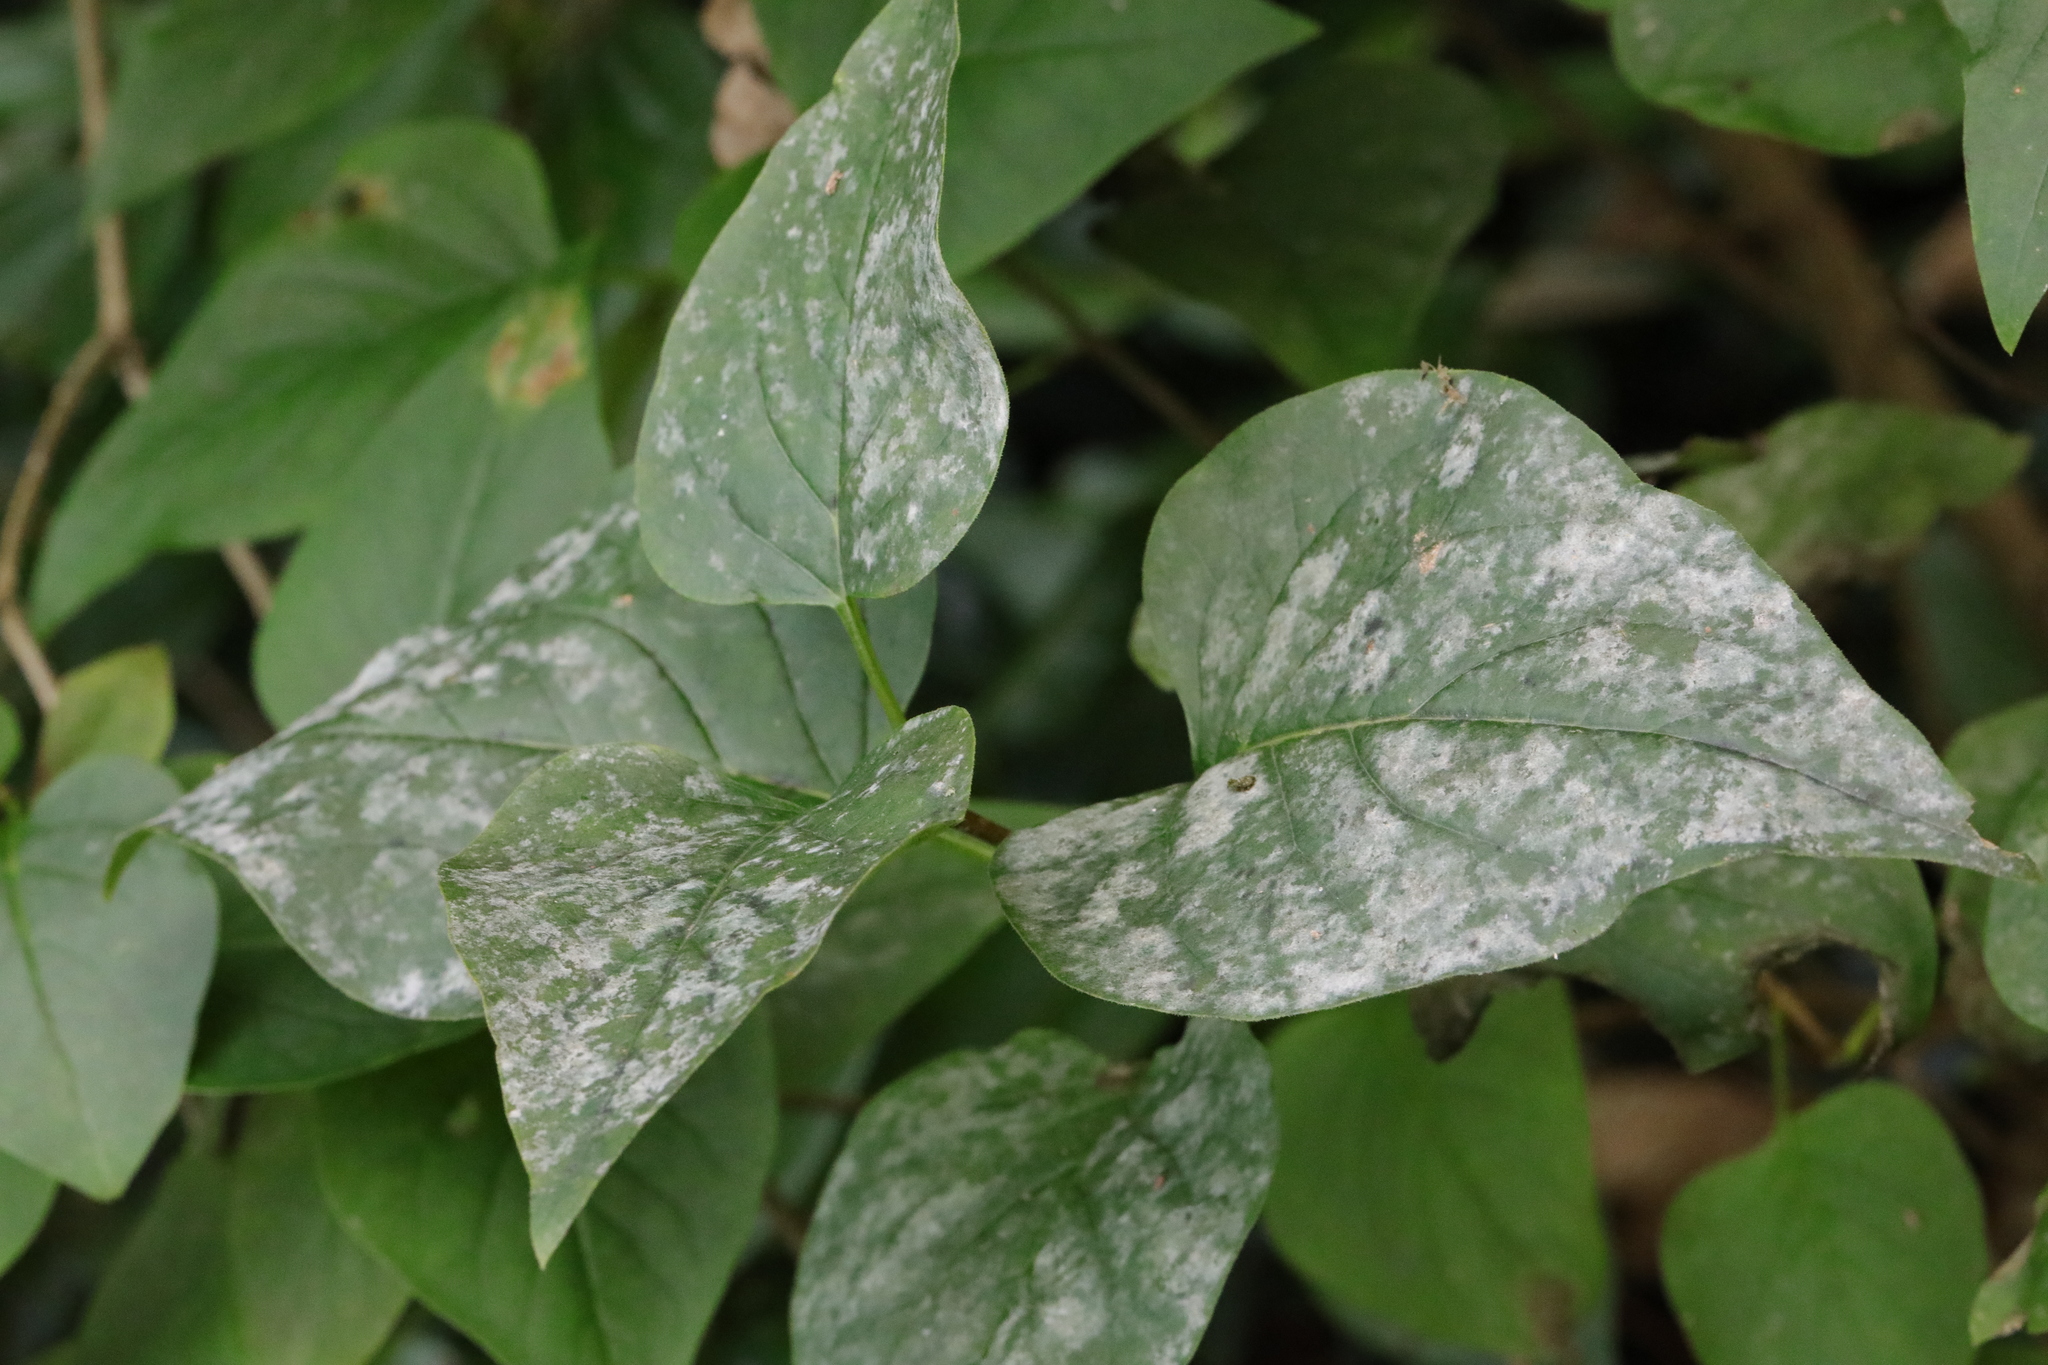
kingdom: Fungi
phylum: Ascomycota
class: Leotiomycetes
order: Helotiales
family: Erysiphaceae
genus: Erysiphe
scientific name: Erysiphe syringae
